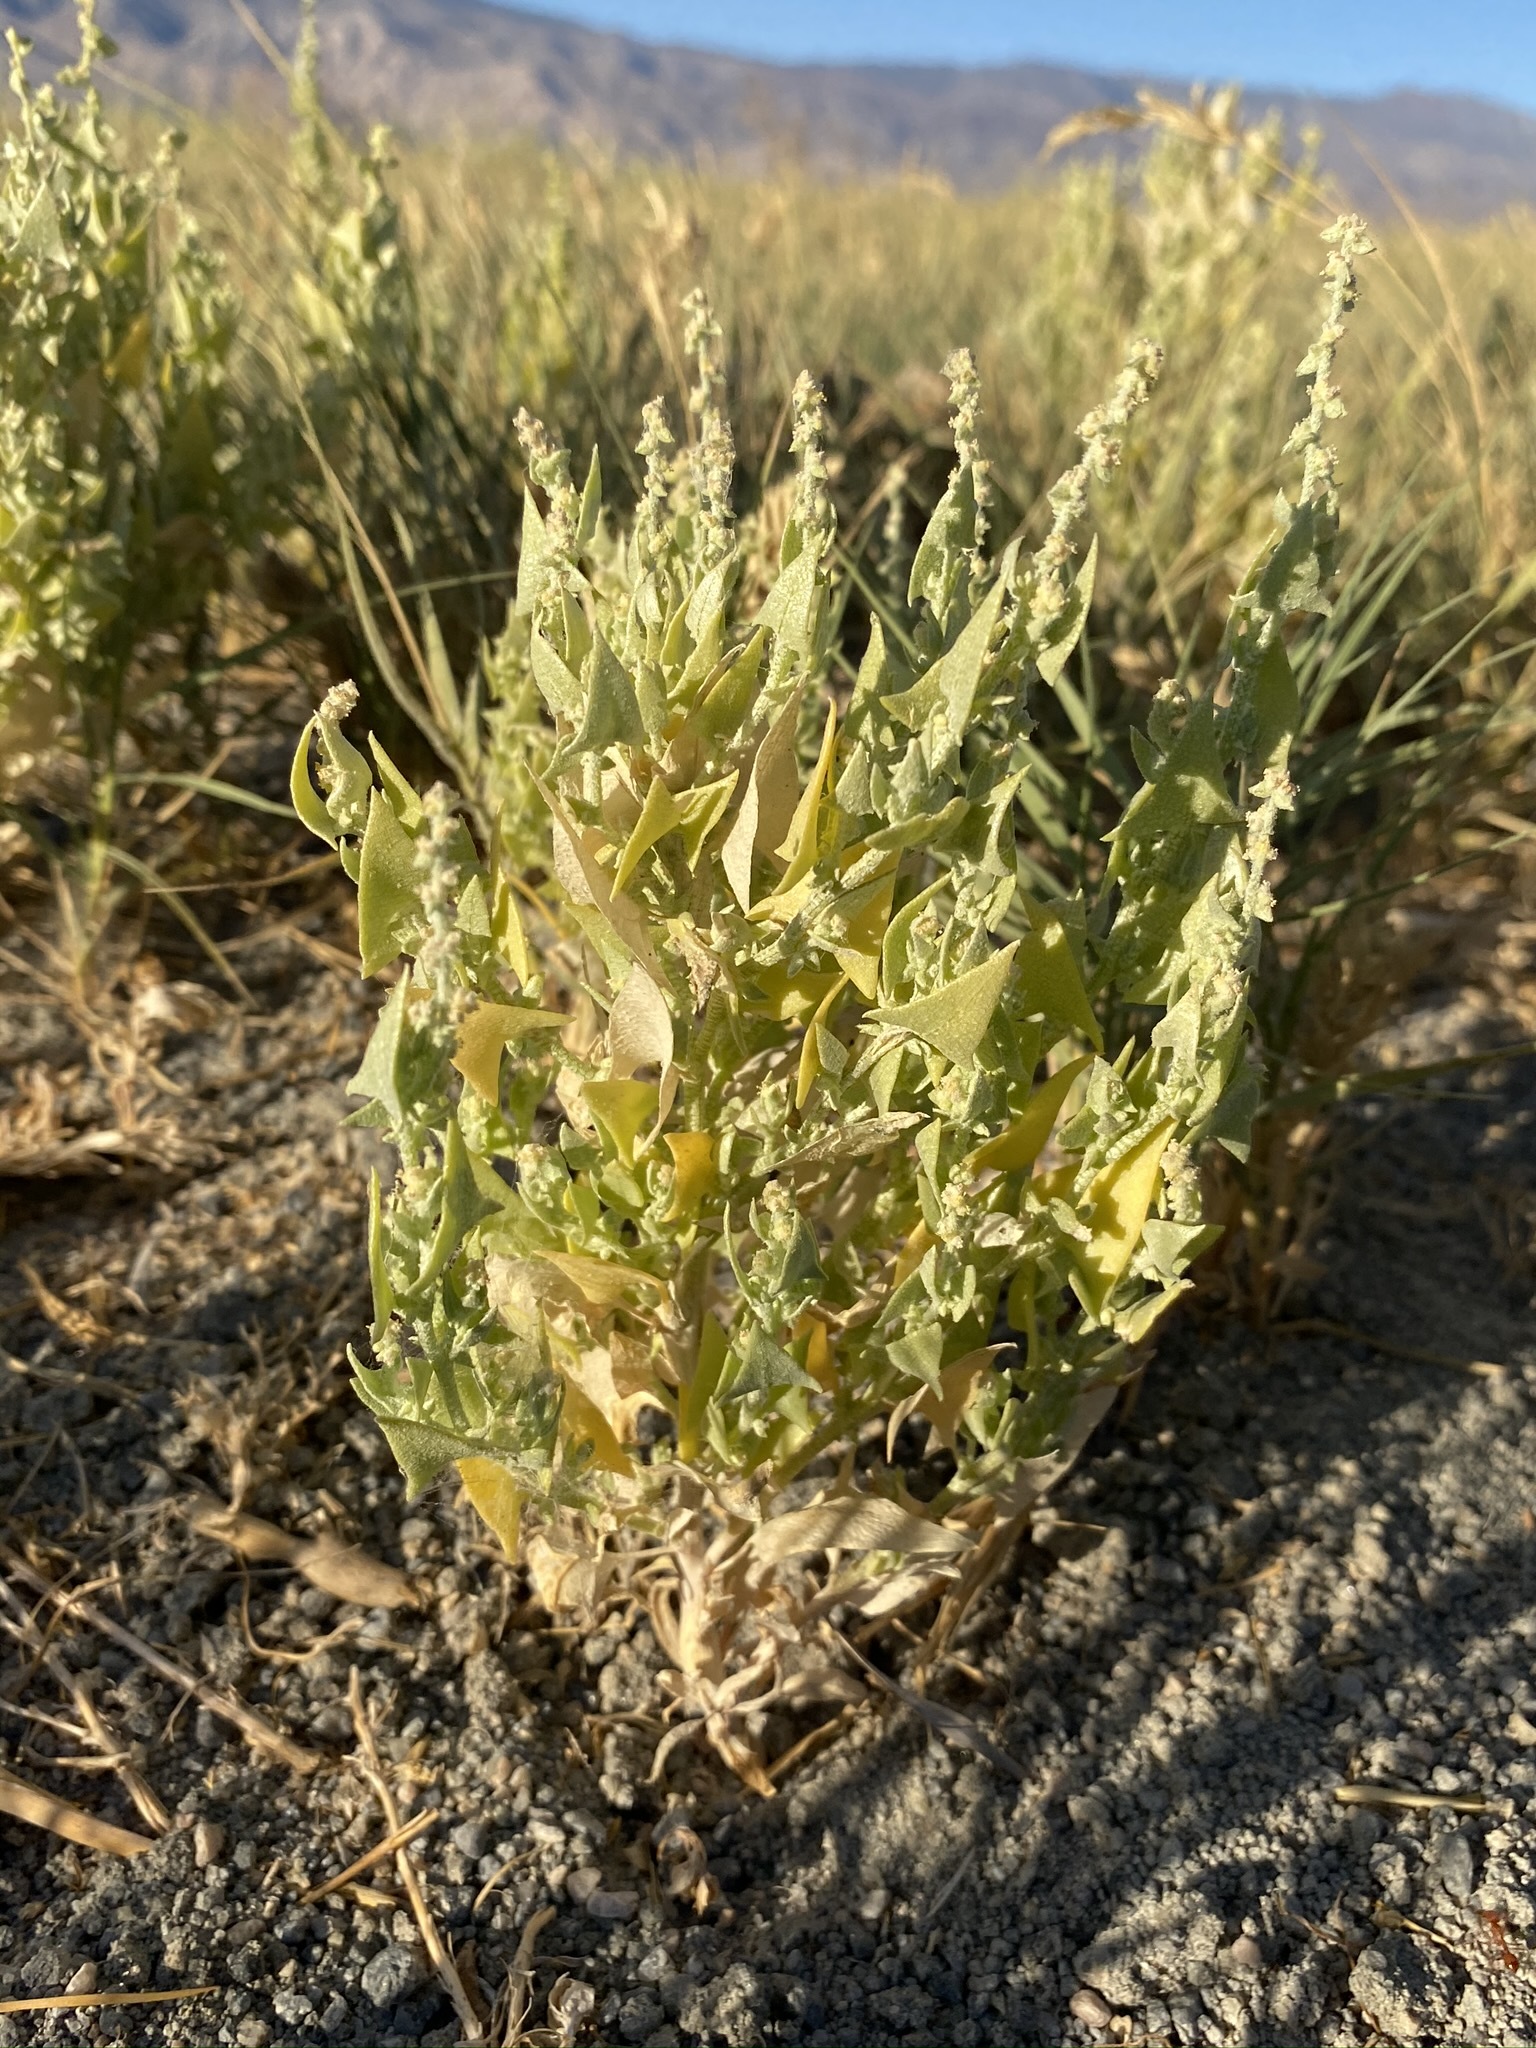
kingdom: Plantae
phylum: Tracheophyta
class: Magnoliopsida
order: Caryophyllales
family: Amaranthaceae
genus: Stutzia
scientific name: Stutzia covillei
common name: Coville's orach
